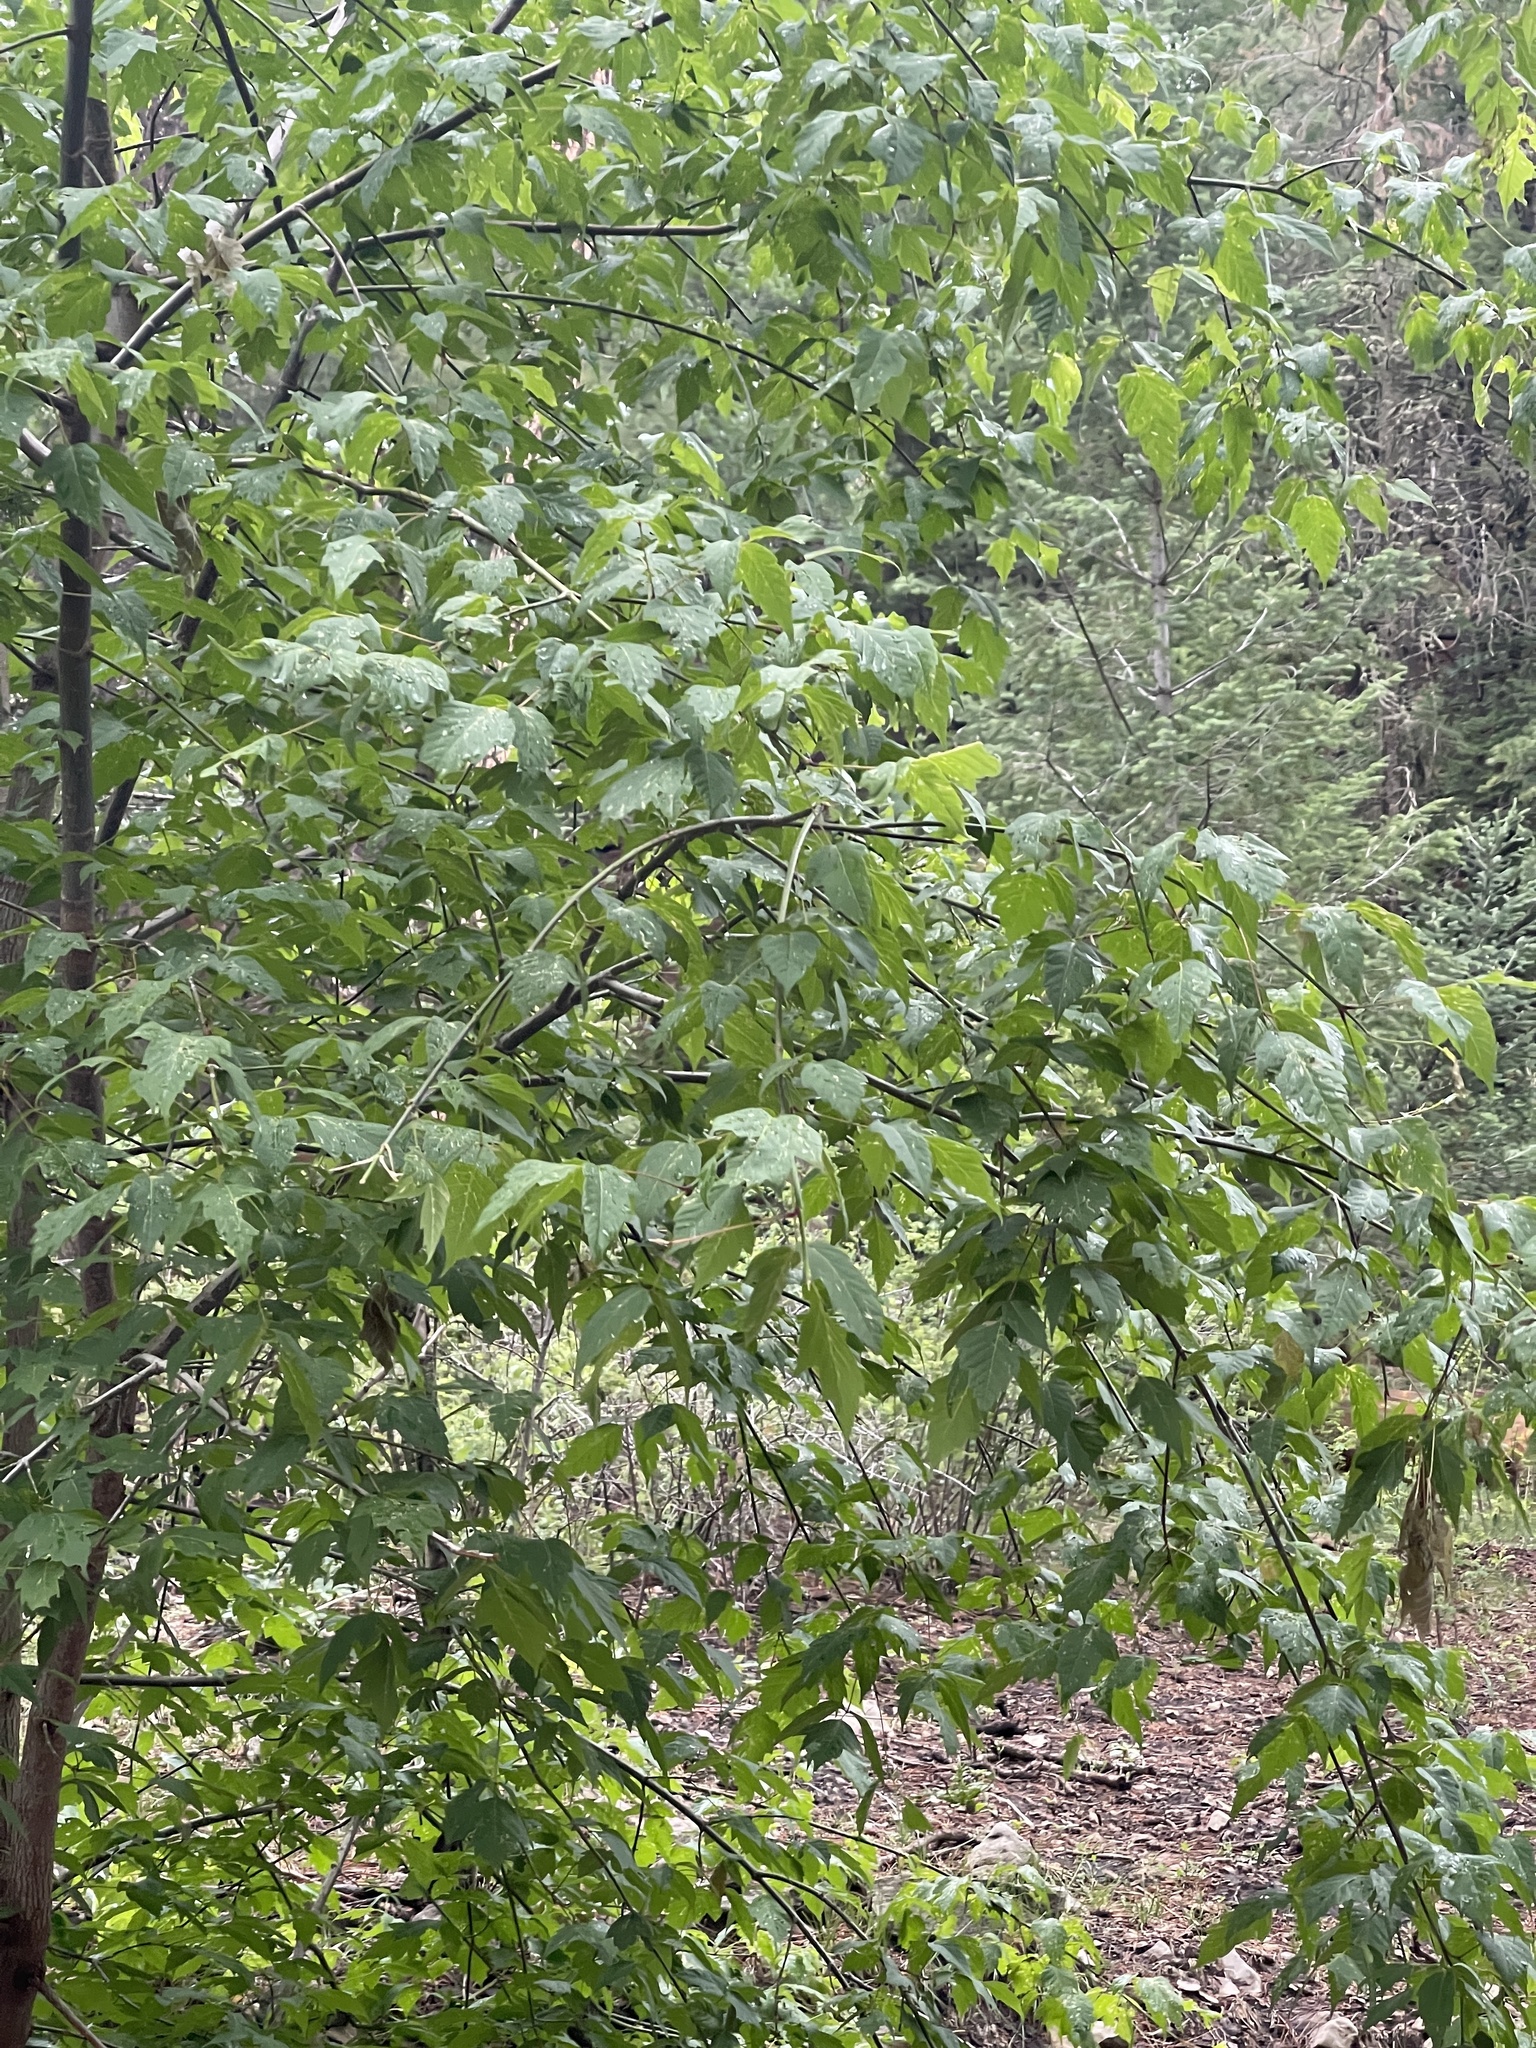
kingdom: Plantae
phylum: Tracheophyta
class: Magnoliopsida
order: Sapindales
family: Sapindaceae
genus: Acer
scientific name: Acer negundo
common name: Ashleaf maple
